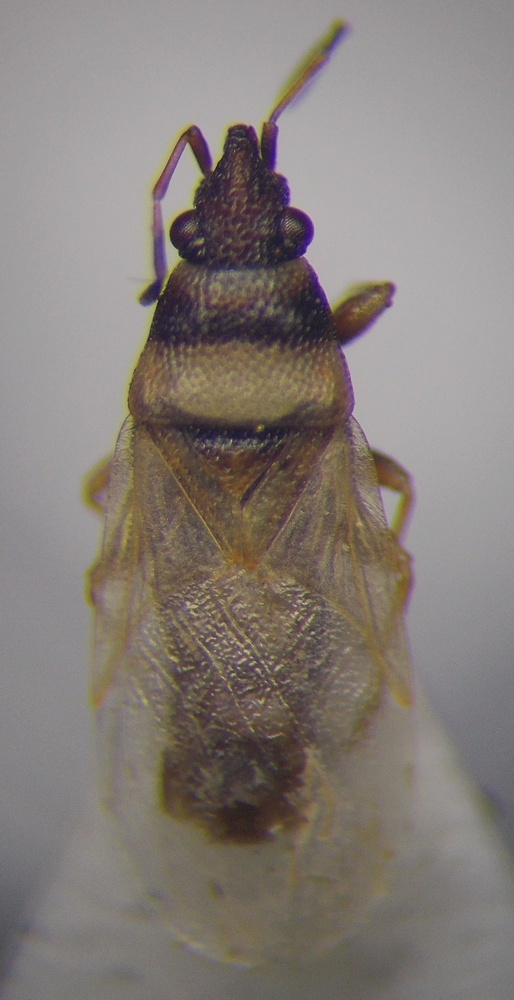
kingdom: Animalia
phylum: Arthropoda
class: Insecta
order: Hemiptera
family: Oxycarenidae
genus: Oxycarenus
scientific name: Oxycarenus pallens
